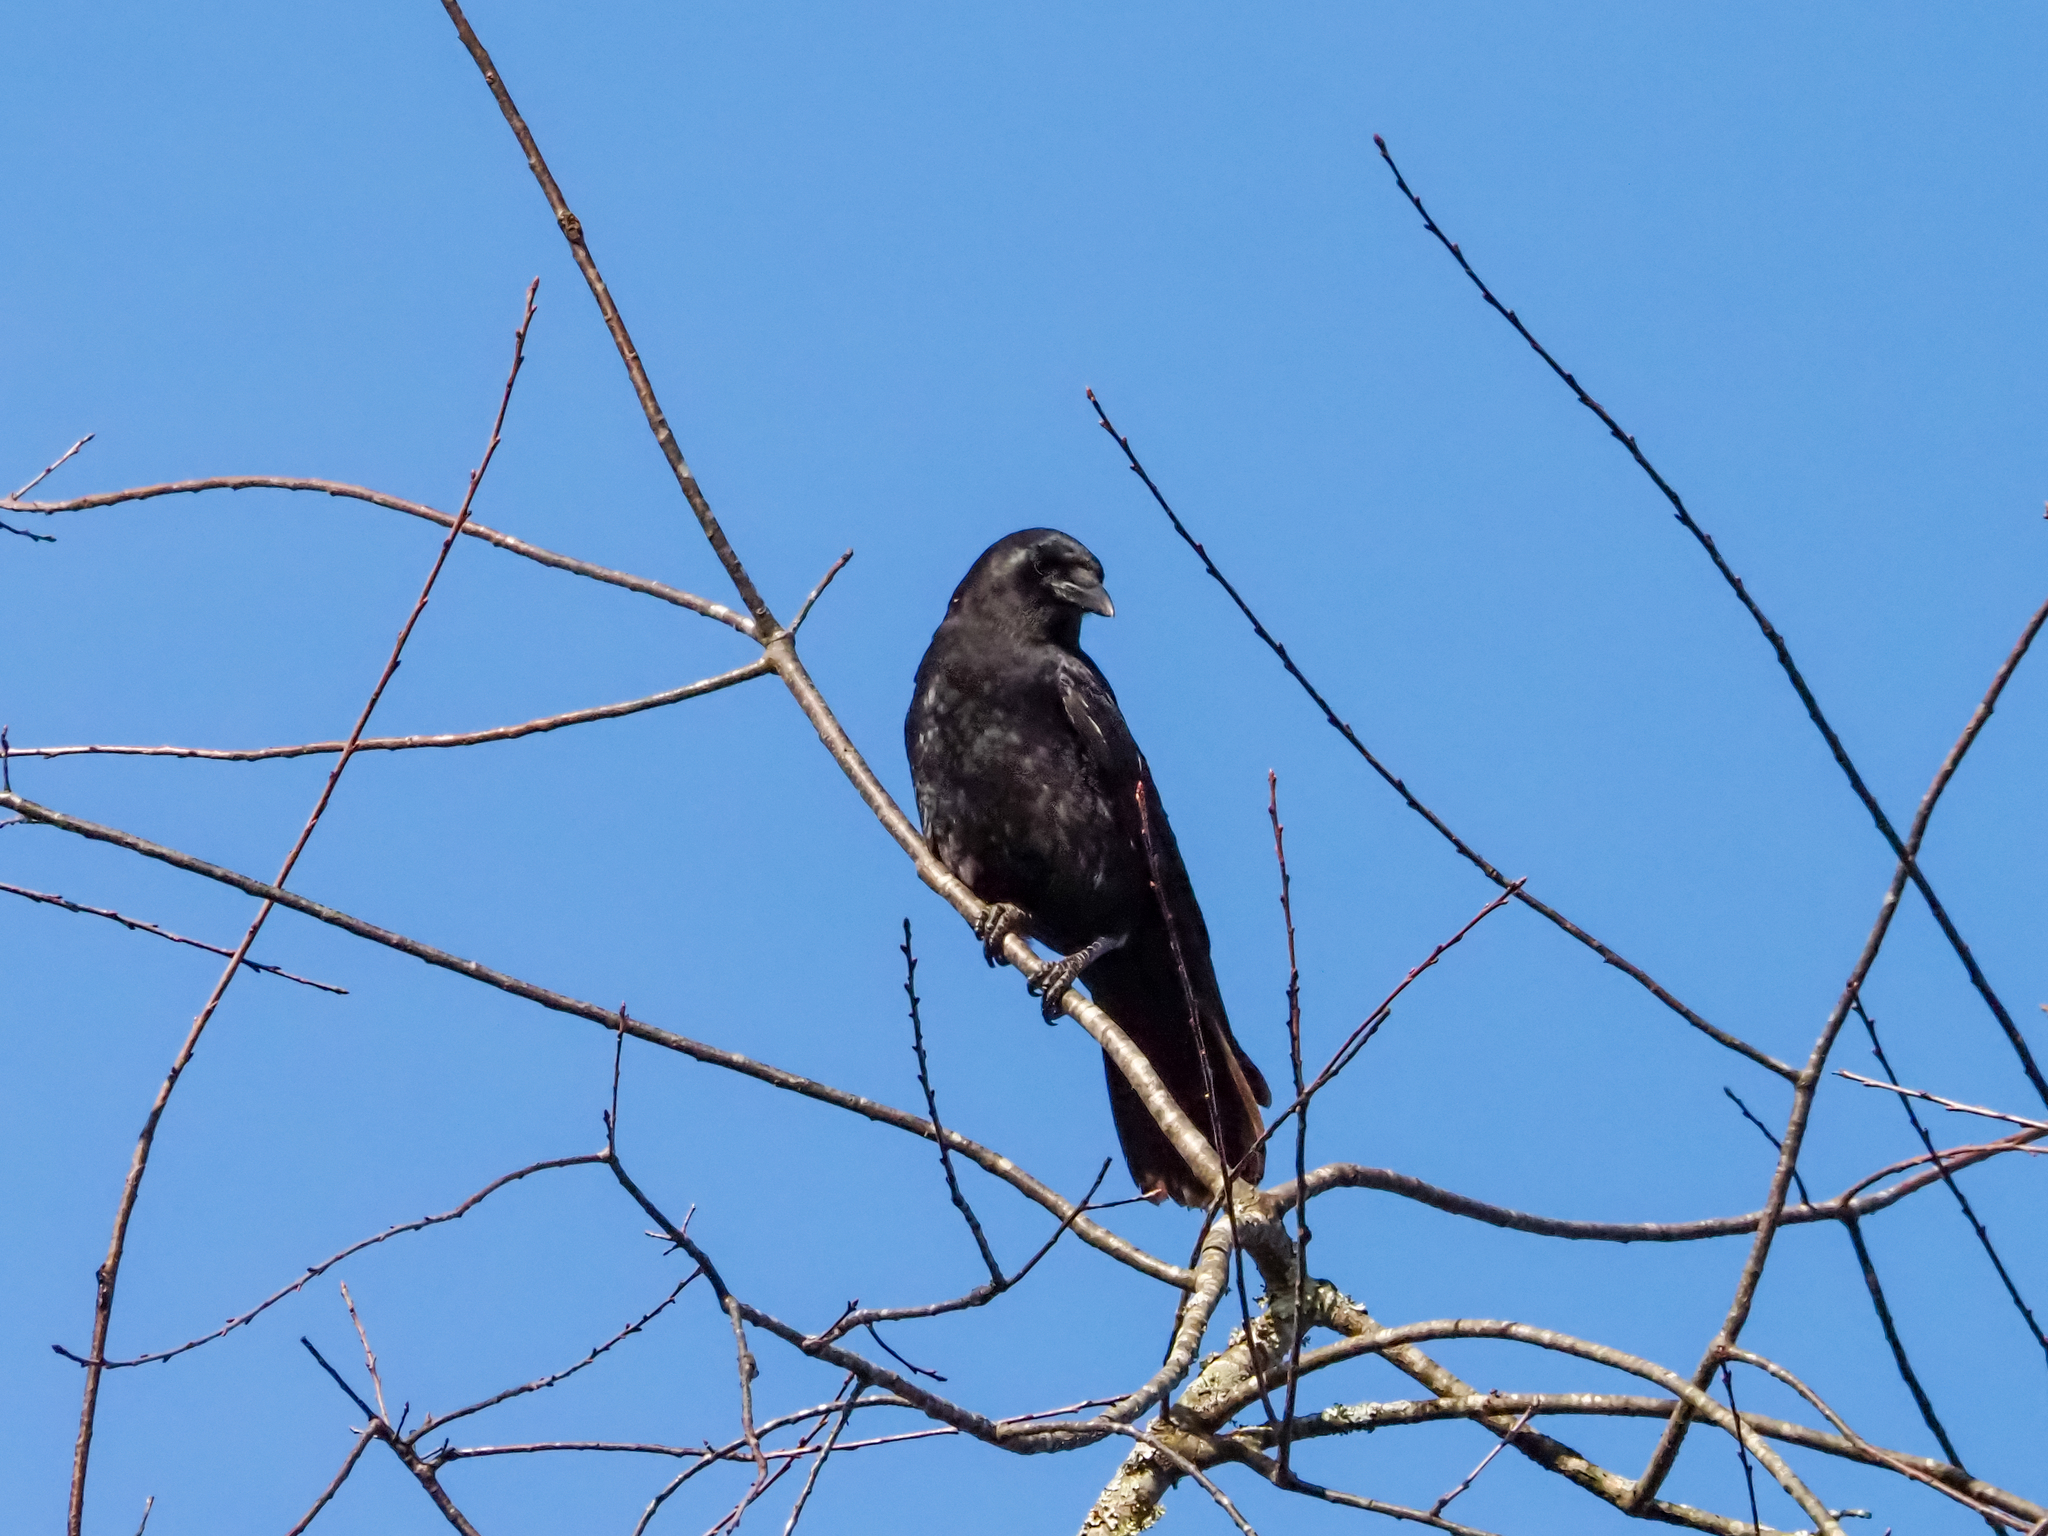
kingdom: Animalia
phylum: Chordata
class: Aves
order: Passeriformes
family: Corvidae
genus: Corvus
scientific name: Corvus brachyrhynchos
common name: American crow
